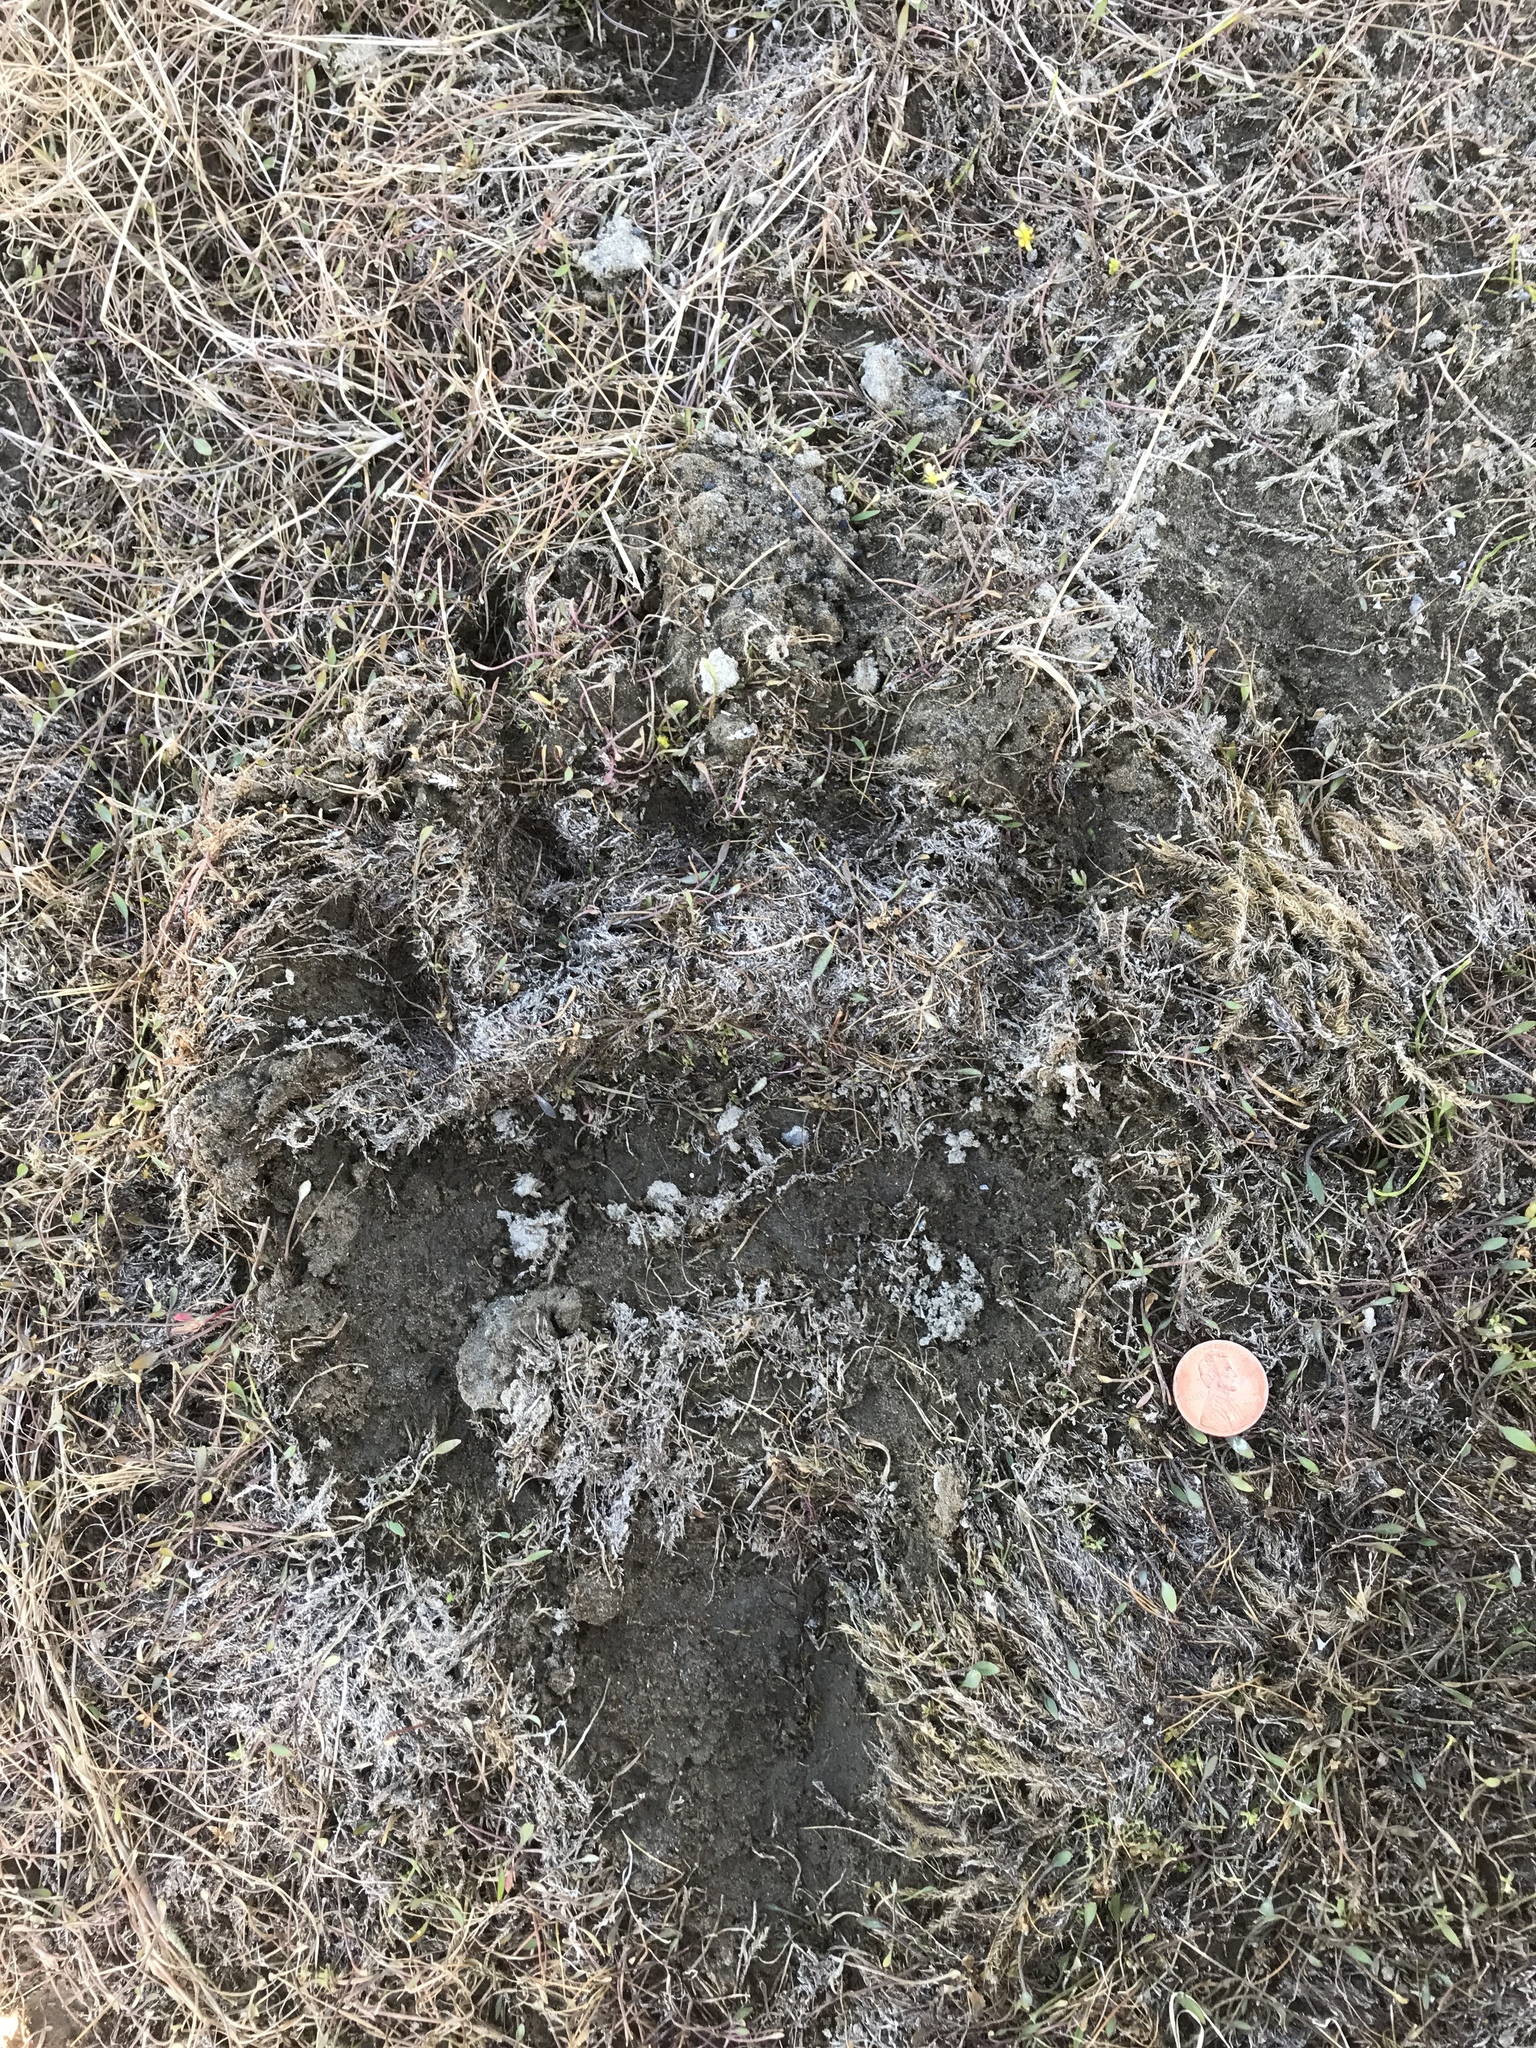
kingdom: Animalia
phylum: Chordata
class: Mammalia
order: Carnivora
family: Ursidae
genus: Ursus
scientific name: Ursus arctos
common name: Brown bear
